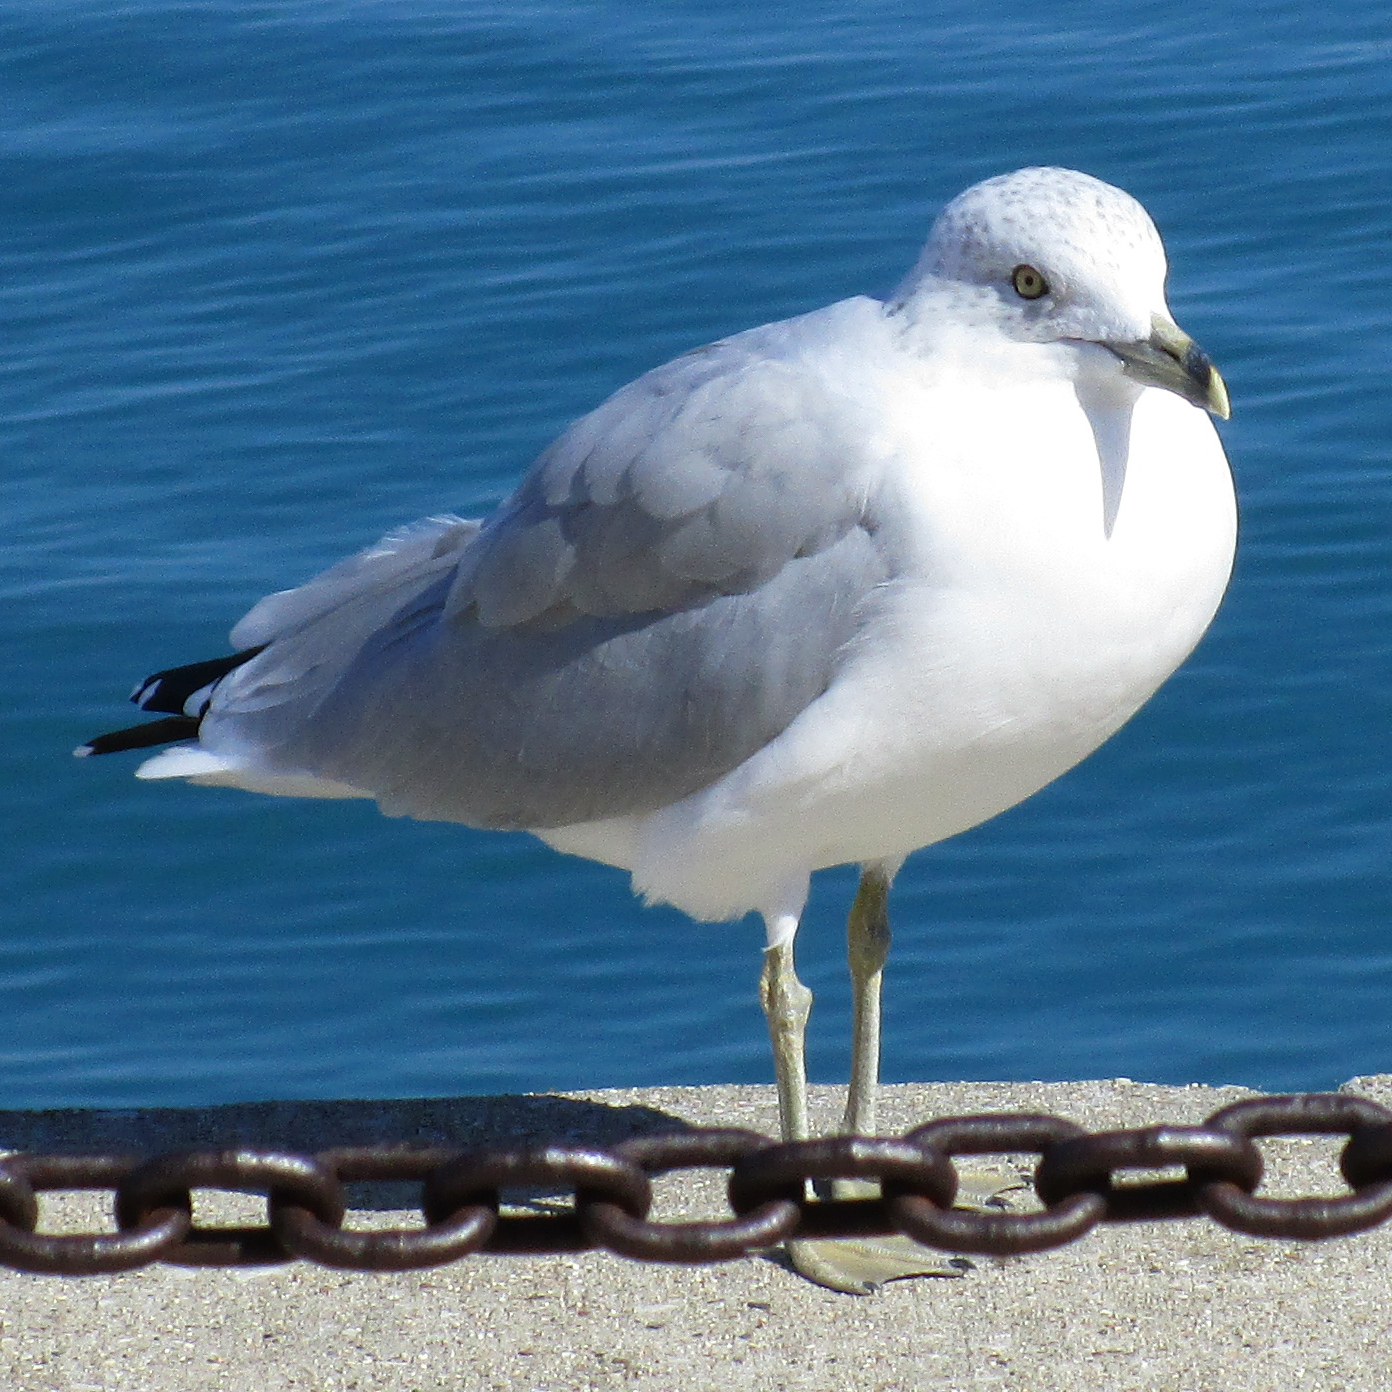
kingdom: Animalia
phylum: Chordata
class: Aves
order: Charadriiformes
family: Laridae
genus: Larus
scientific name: Larus delawarensis
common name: Ring-billed gull
